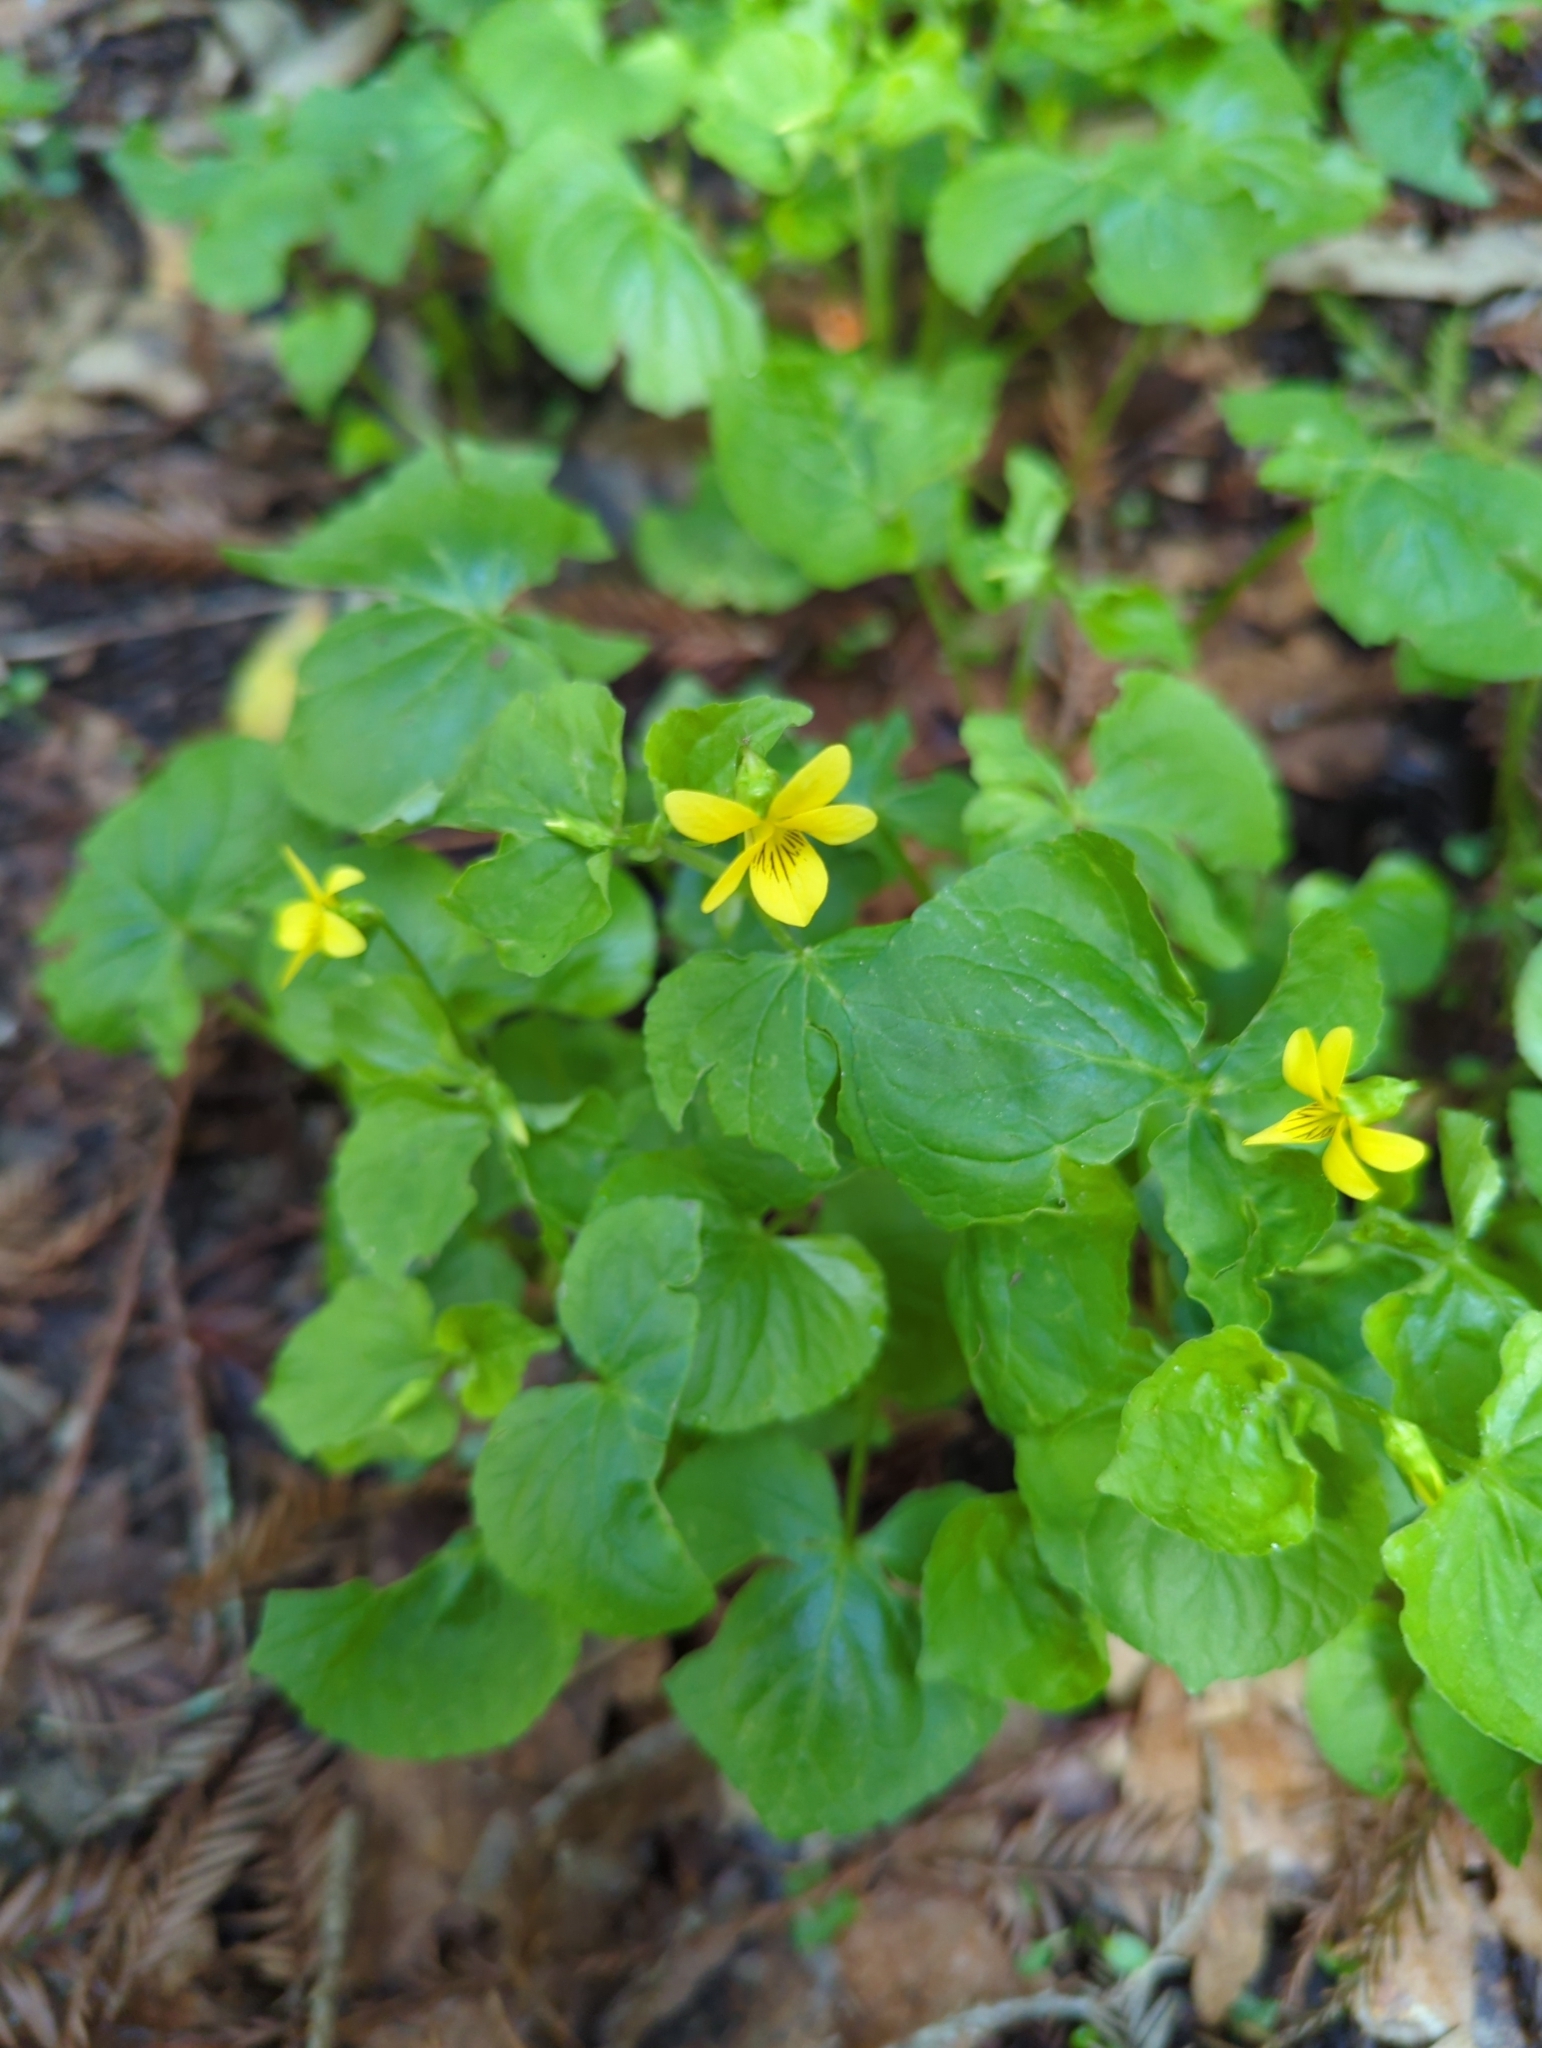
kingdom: Plantae
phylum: Tracheophyta
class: Magnoliopsida
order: Malpighiales
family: Violaceae
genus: Viola
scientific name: Viola glabella
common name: Stream violet
